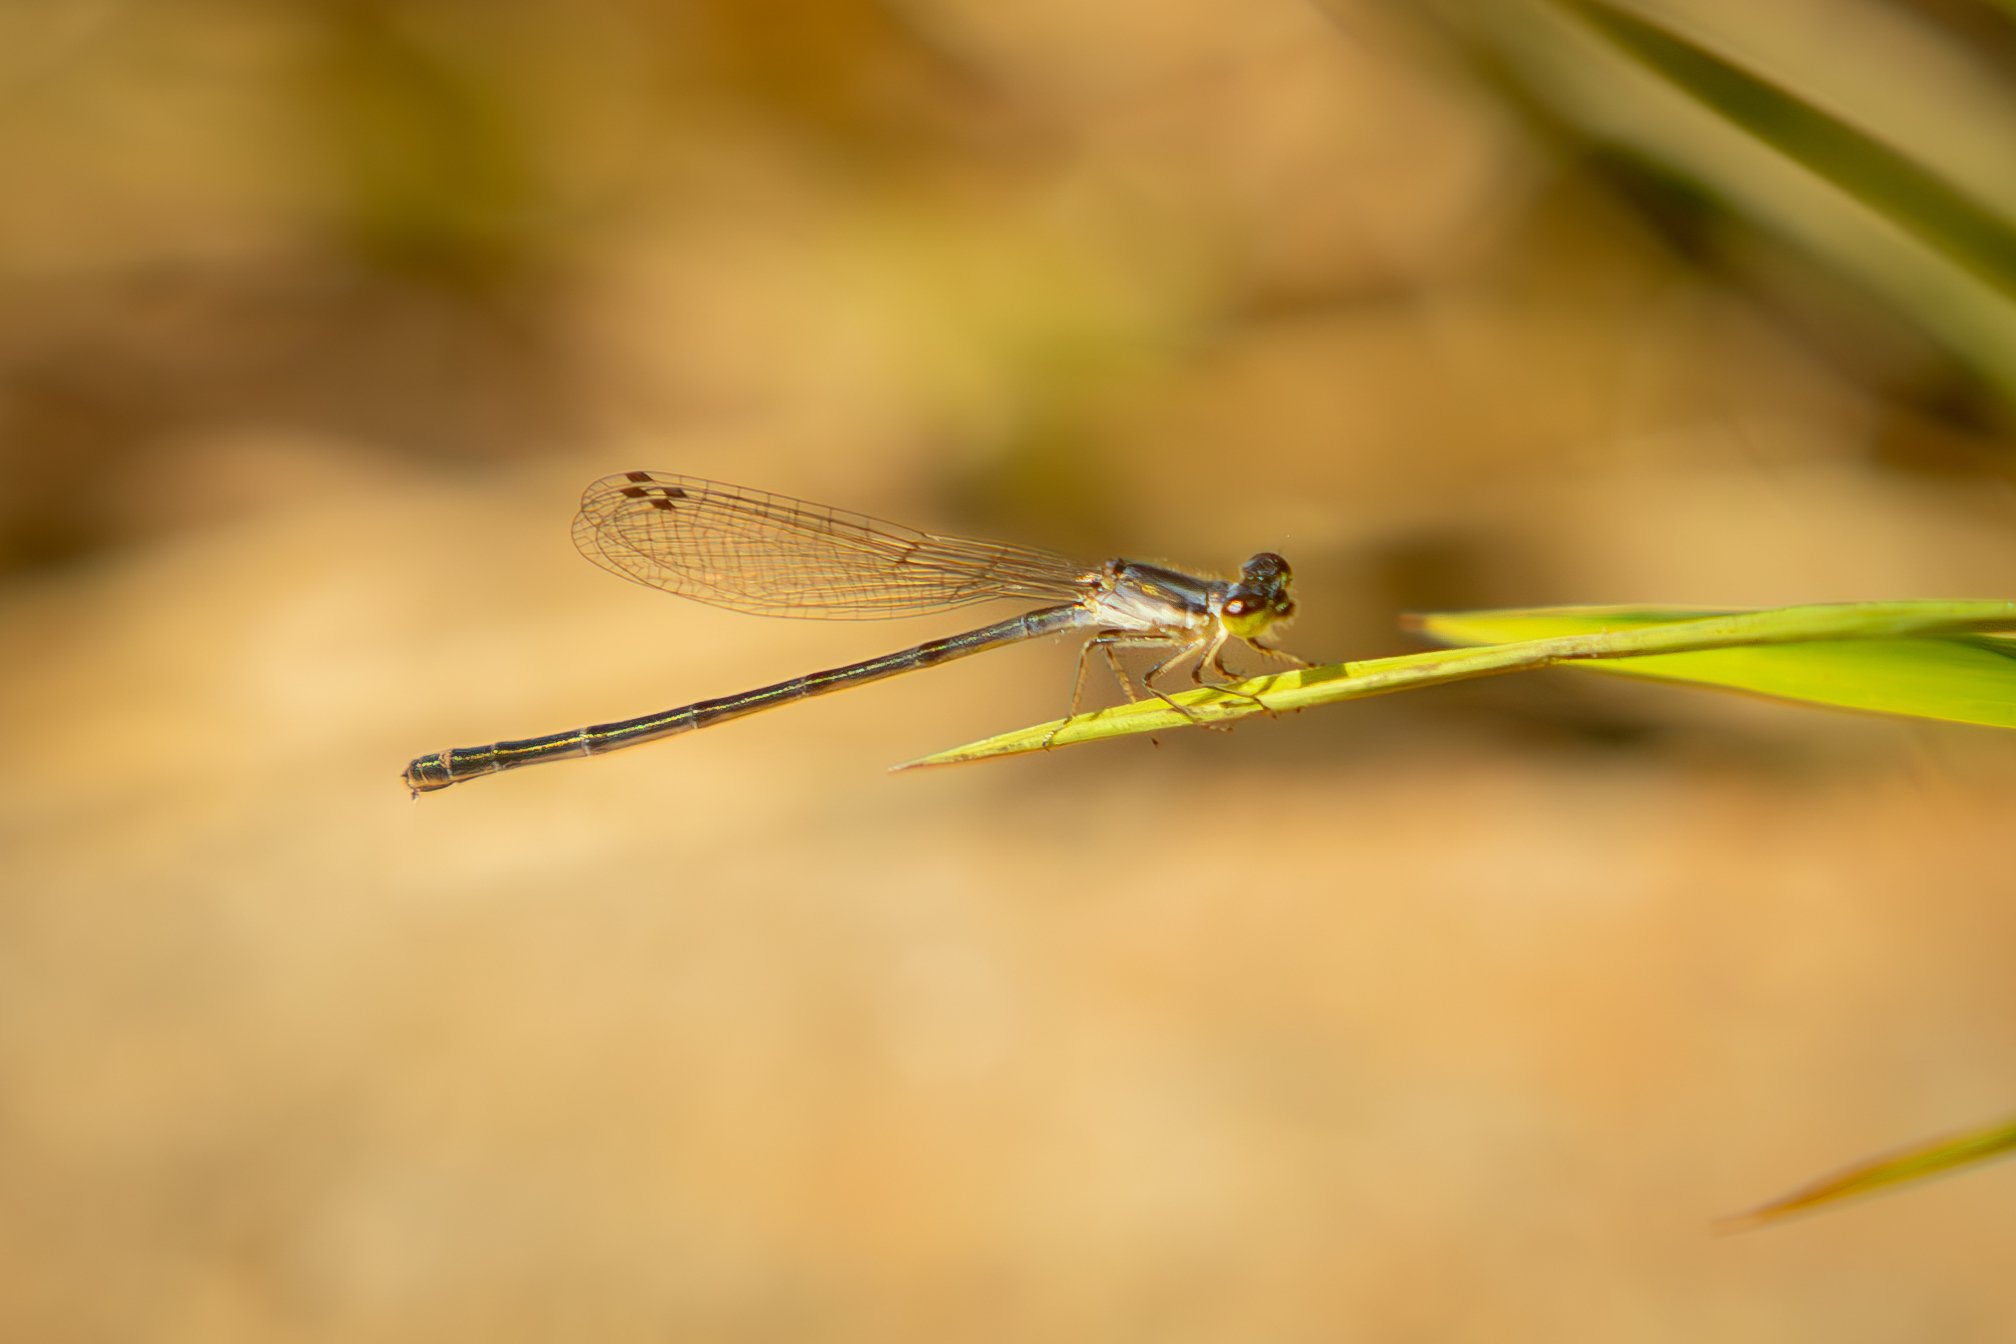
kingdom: Animalia
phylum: Arthropoda
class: Insecta
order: Odonata
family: Coenagrionidae
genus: Ischnura
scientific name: Ischnura posita
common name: Fragile forktail
